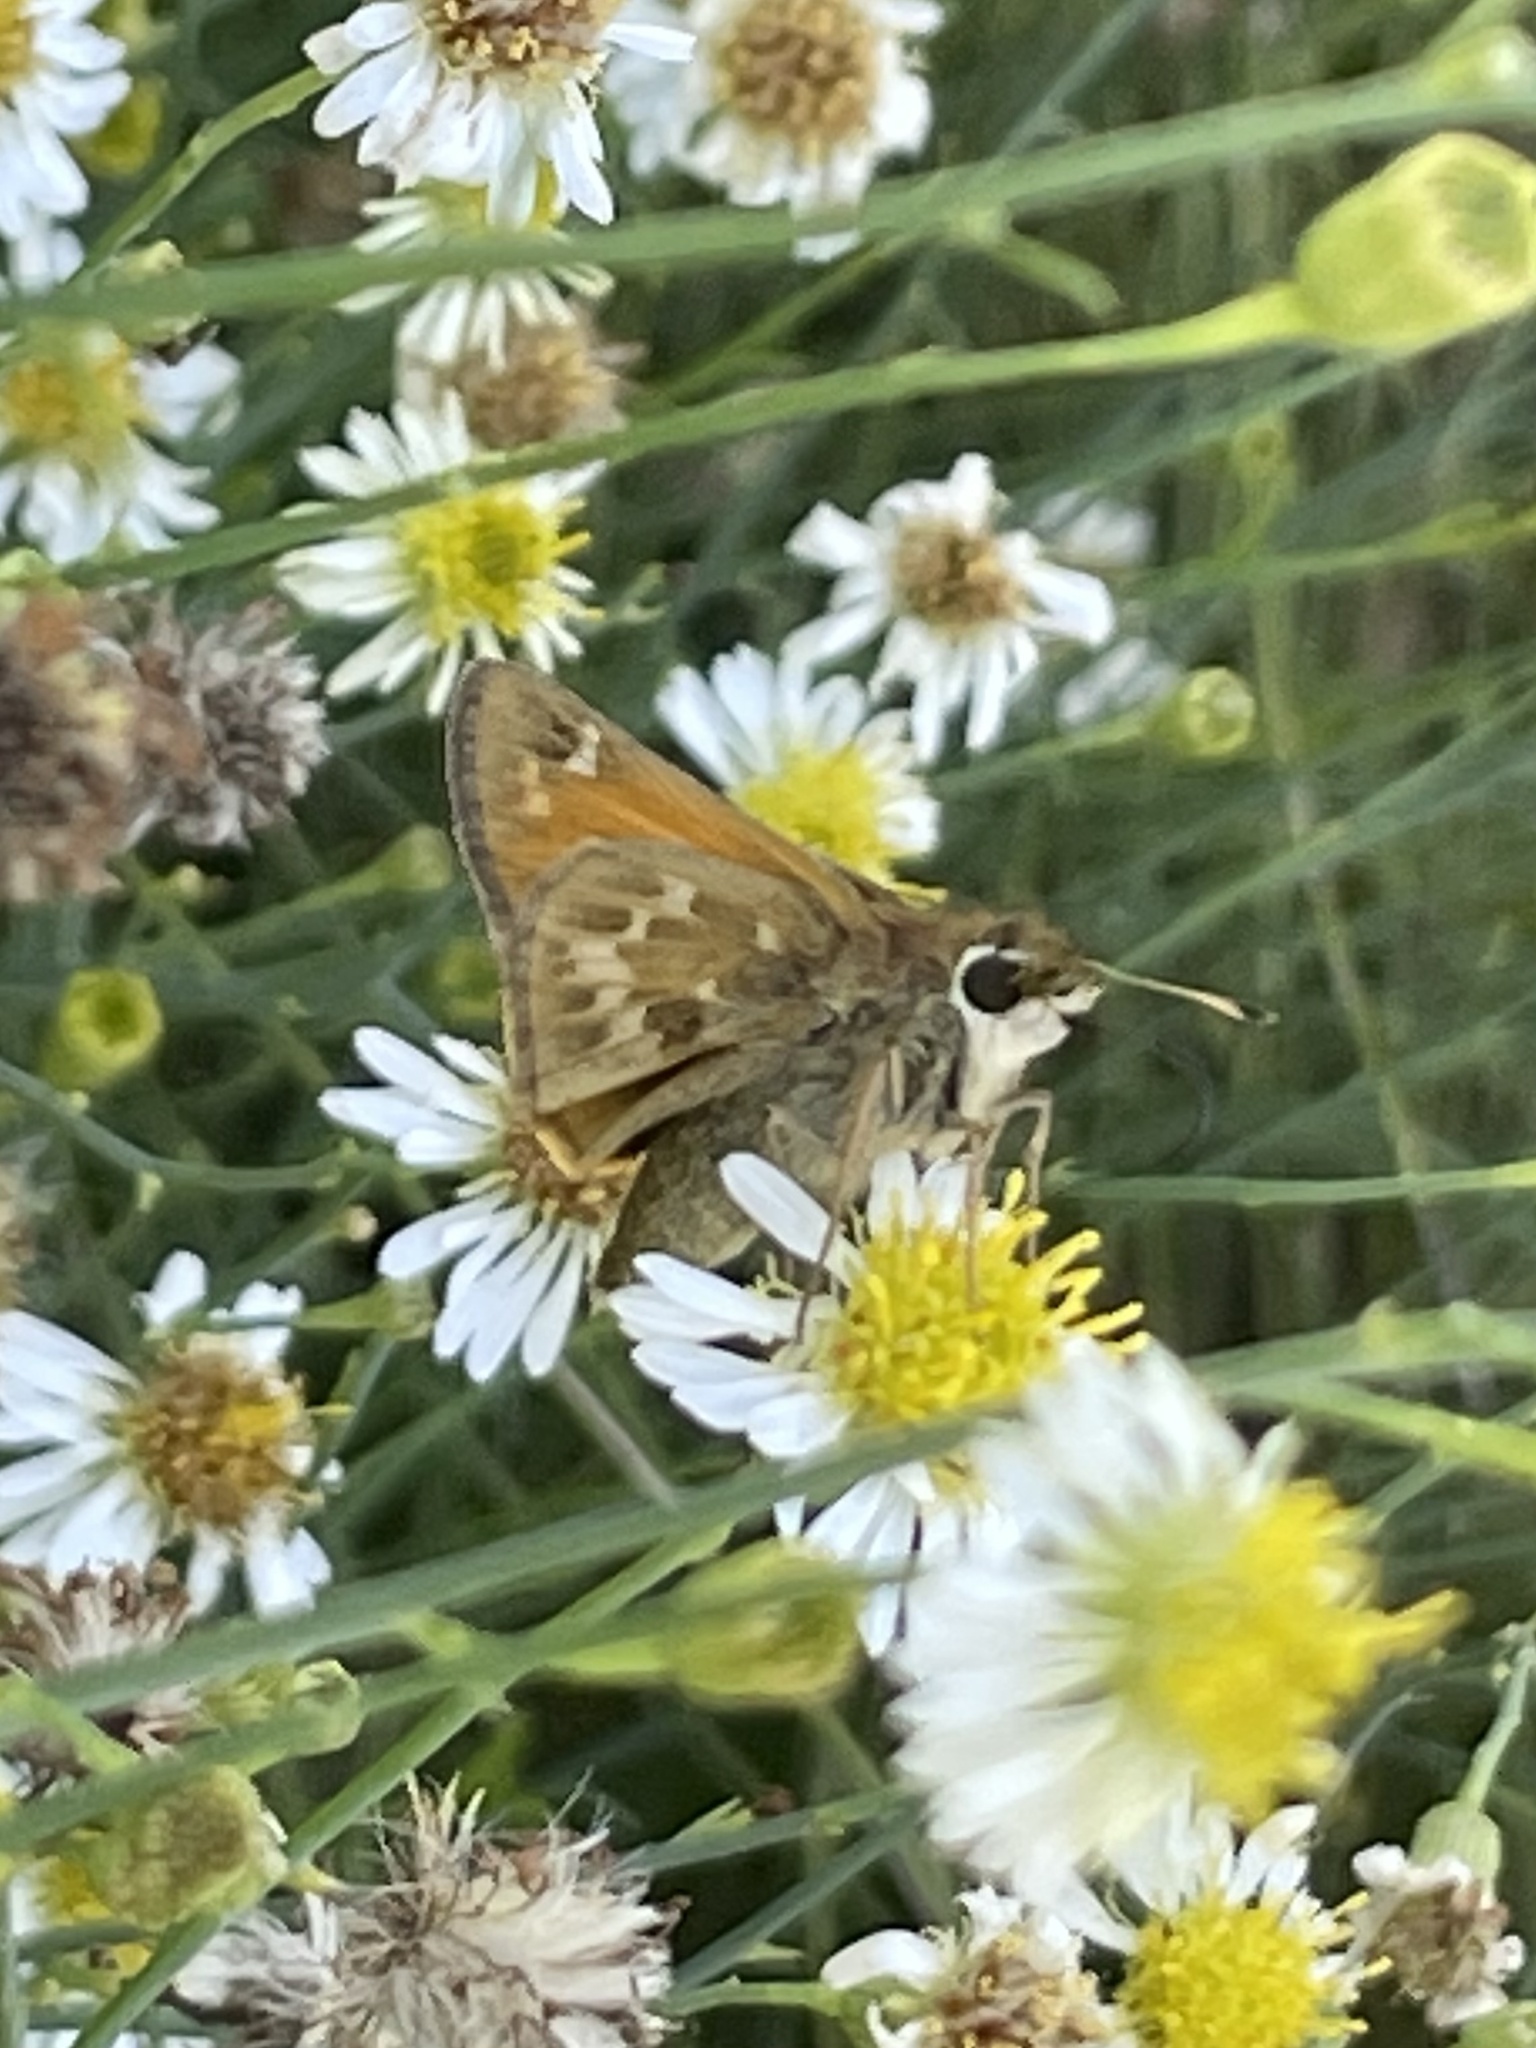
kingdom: Animalia
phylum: Arthropoda
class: Insecta
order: Lepidoptera
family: Hesperiidae
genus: Atalopedes
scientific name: Atalopedes
